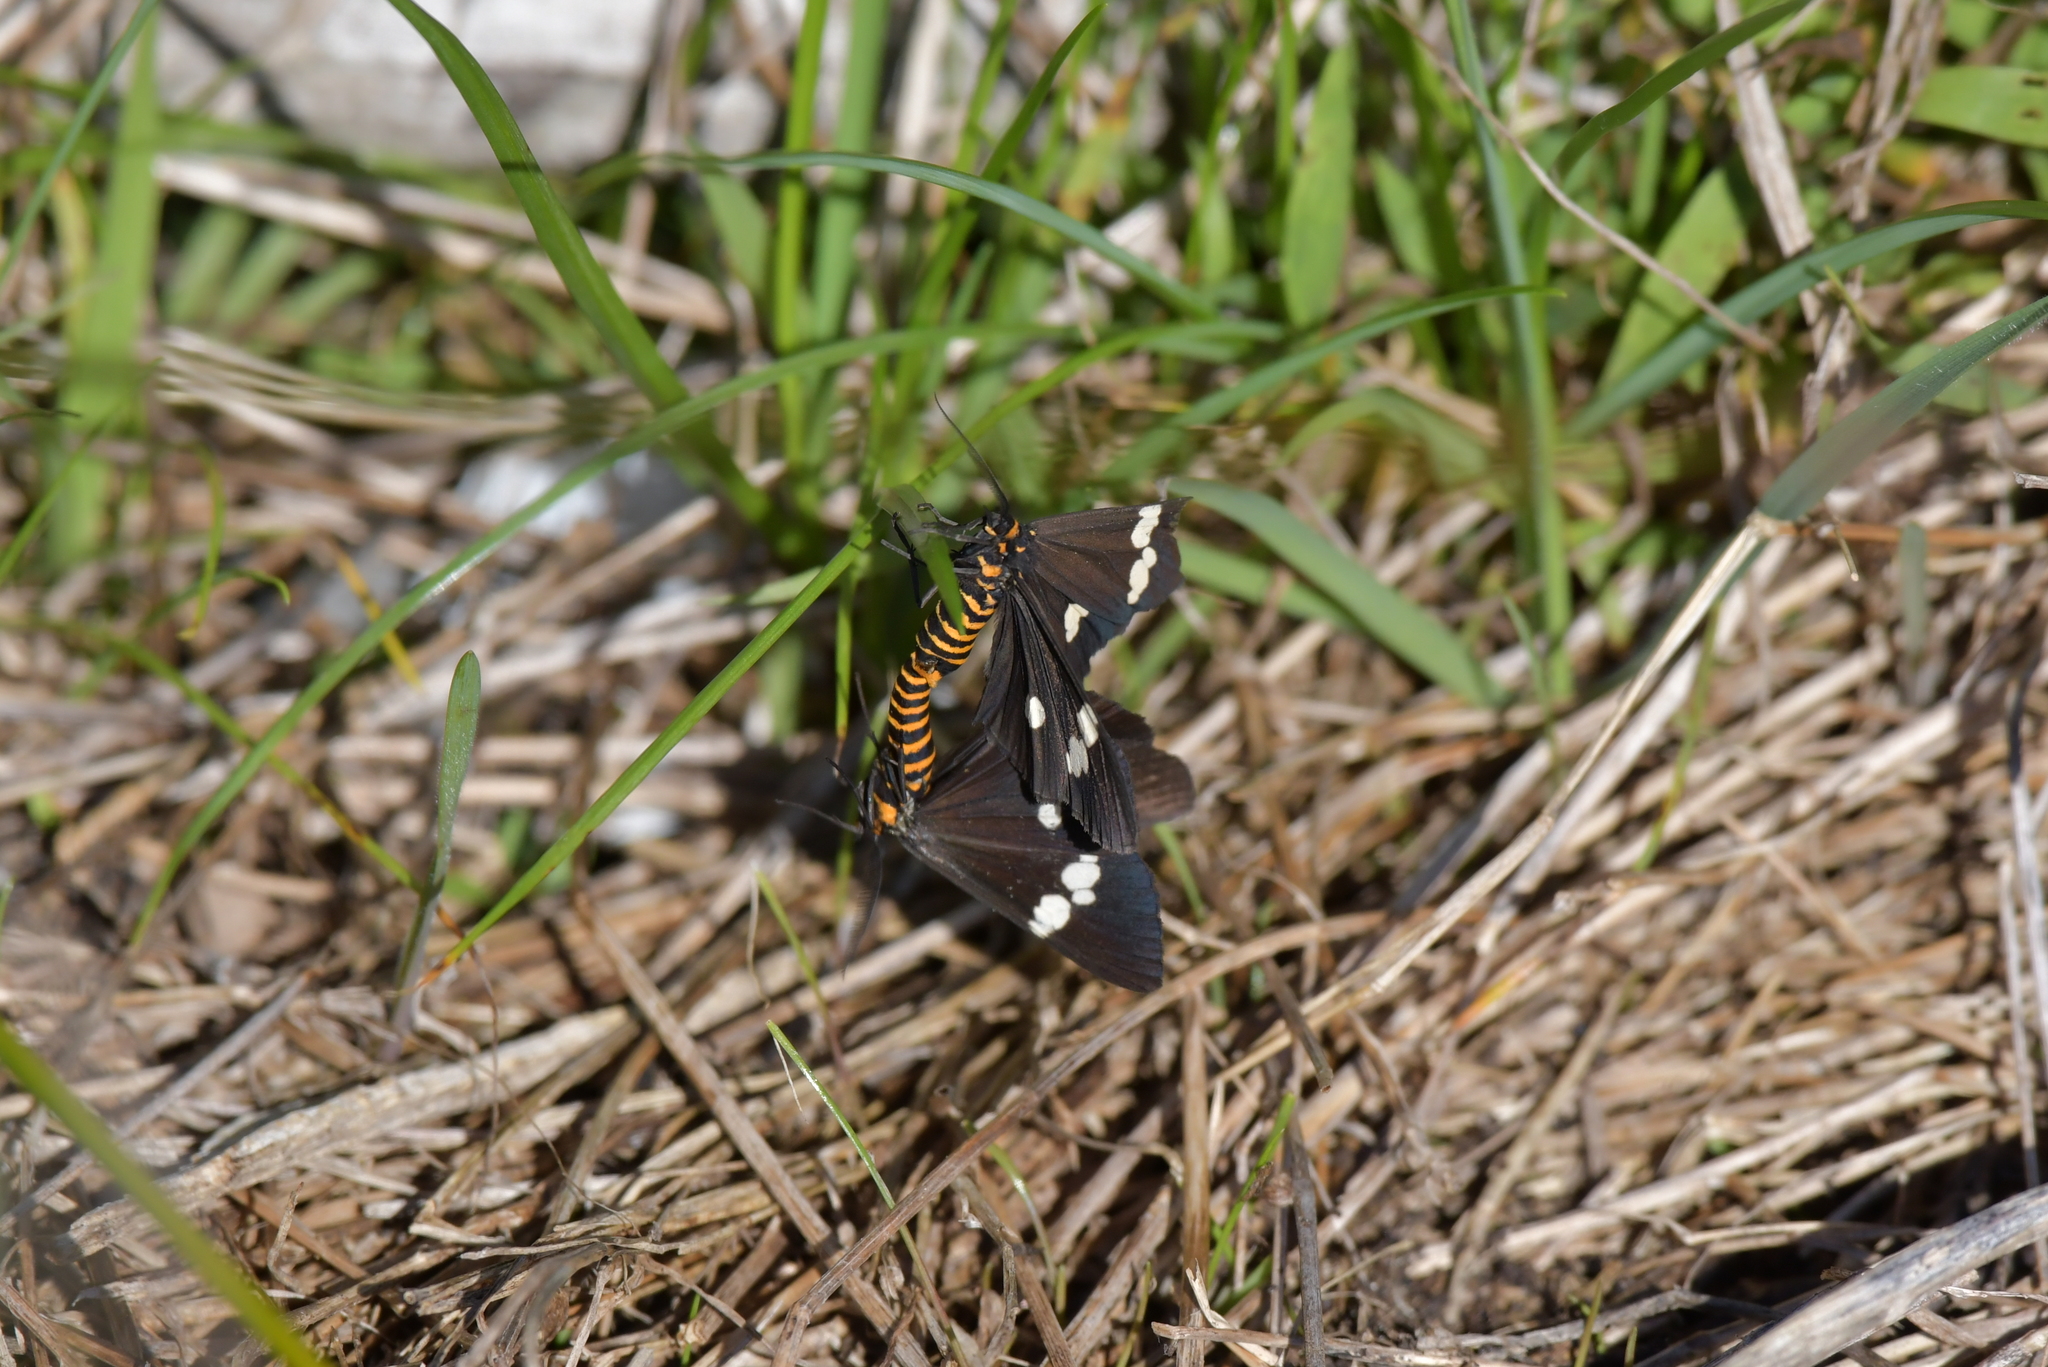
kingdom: Animalia
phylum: Arthropoda
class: Insecta
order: Lepidoptera
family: Erebidae
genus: Nyctemera
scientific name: Nyctemera annulatum
